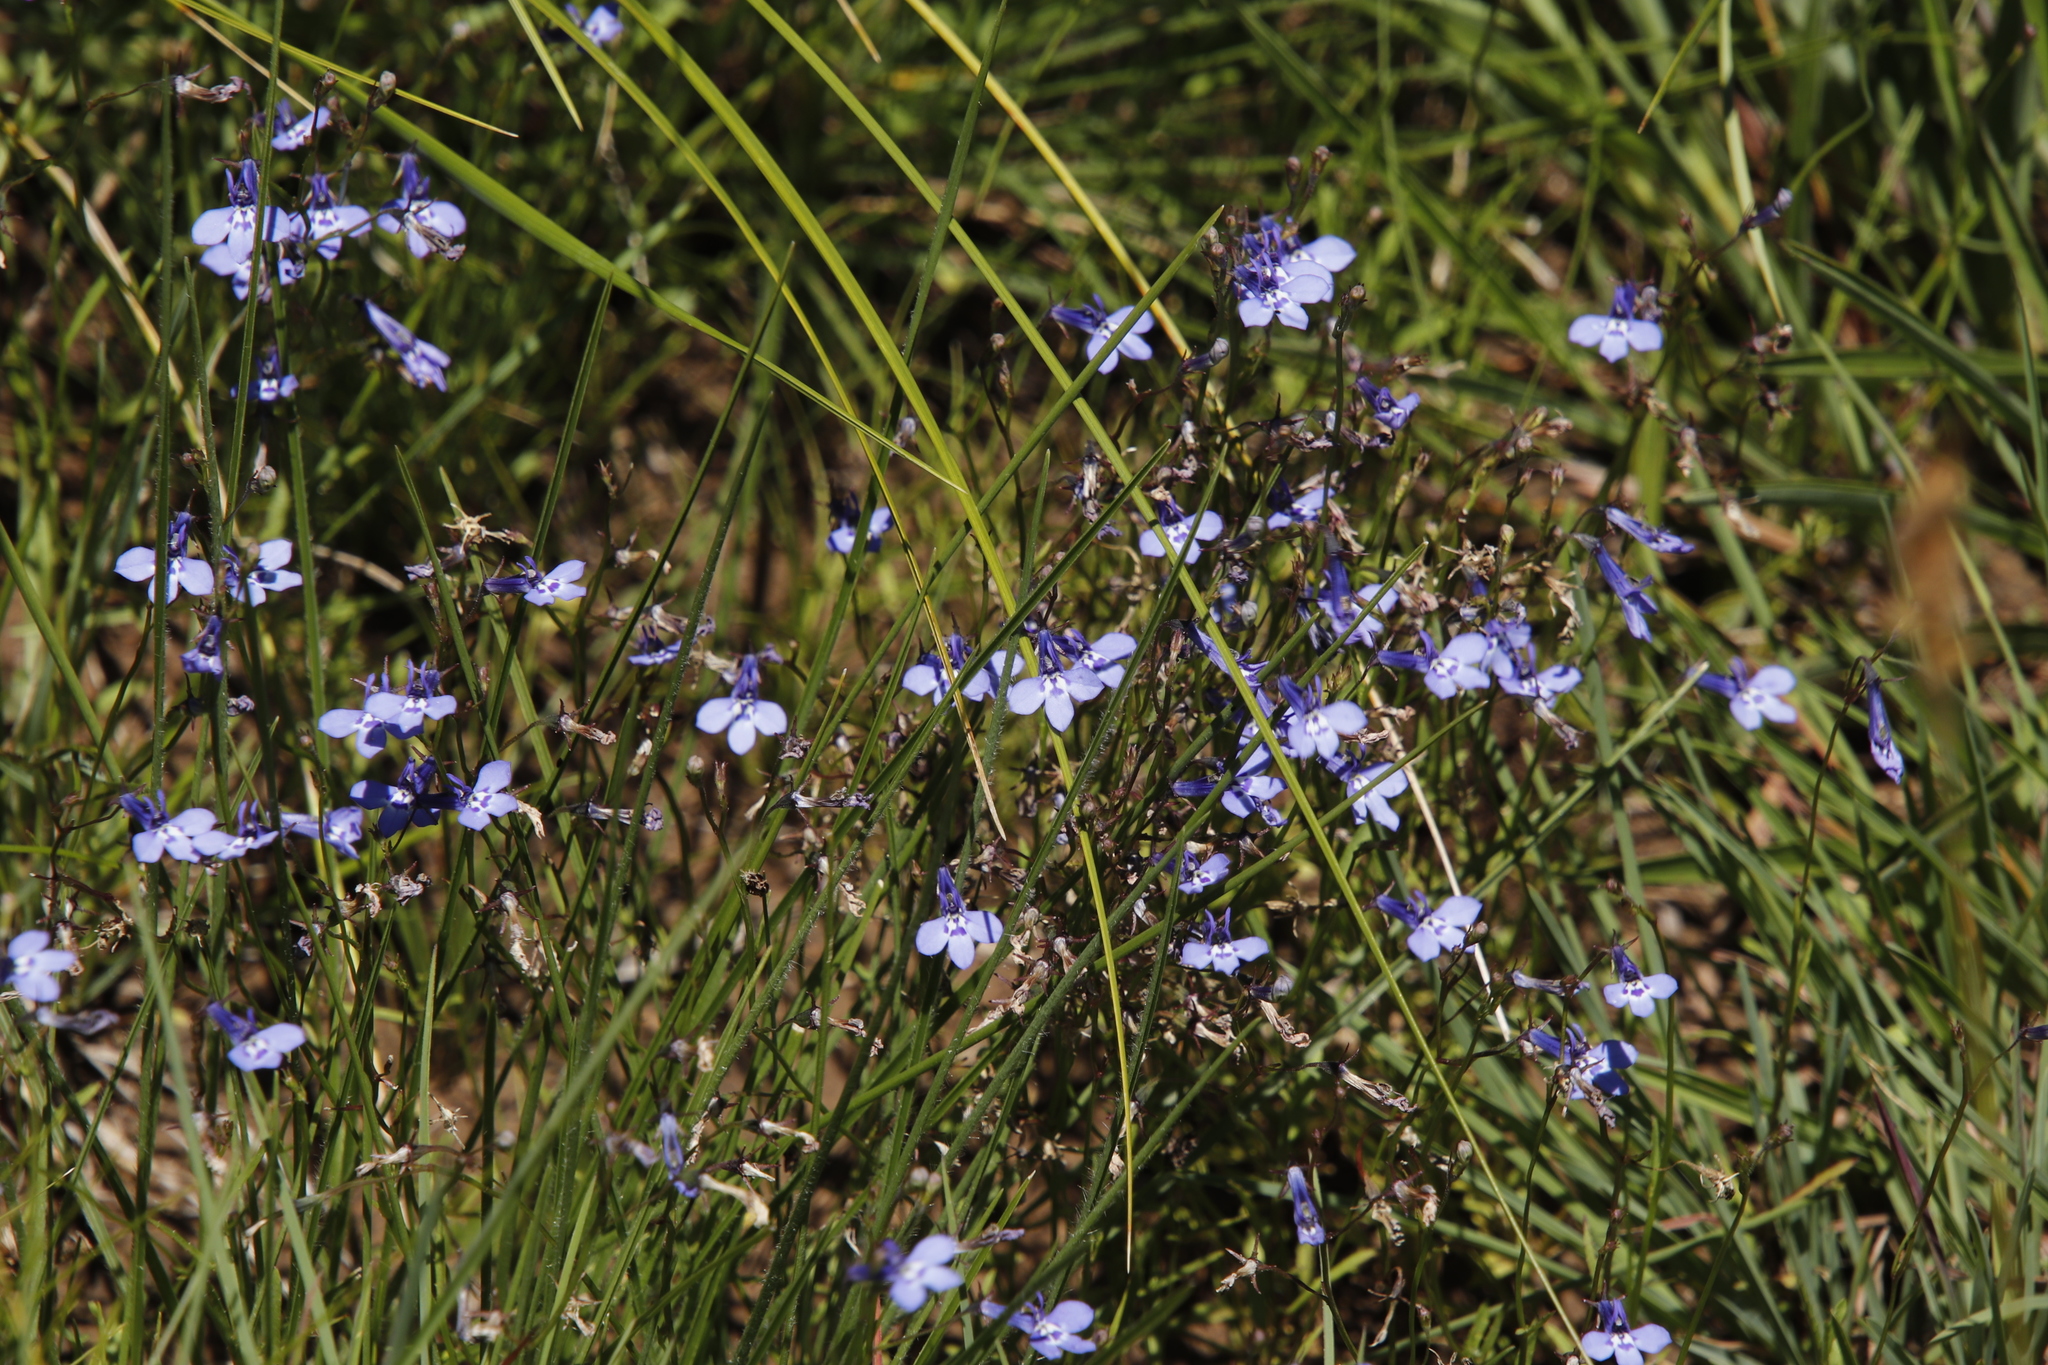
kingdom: Plantae
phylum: Tracheophyta
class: Magnoliopsida
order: Asterales
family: Campanulaceae
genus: Lobelia
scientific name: Lobelia flaccida
